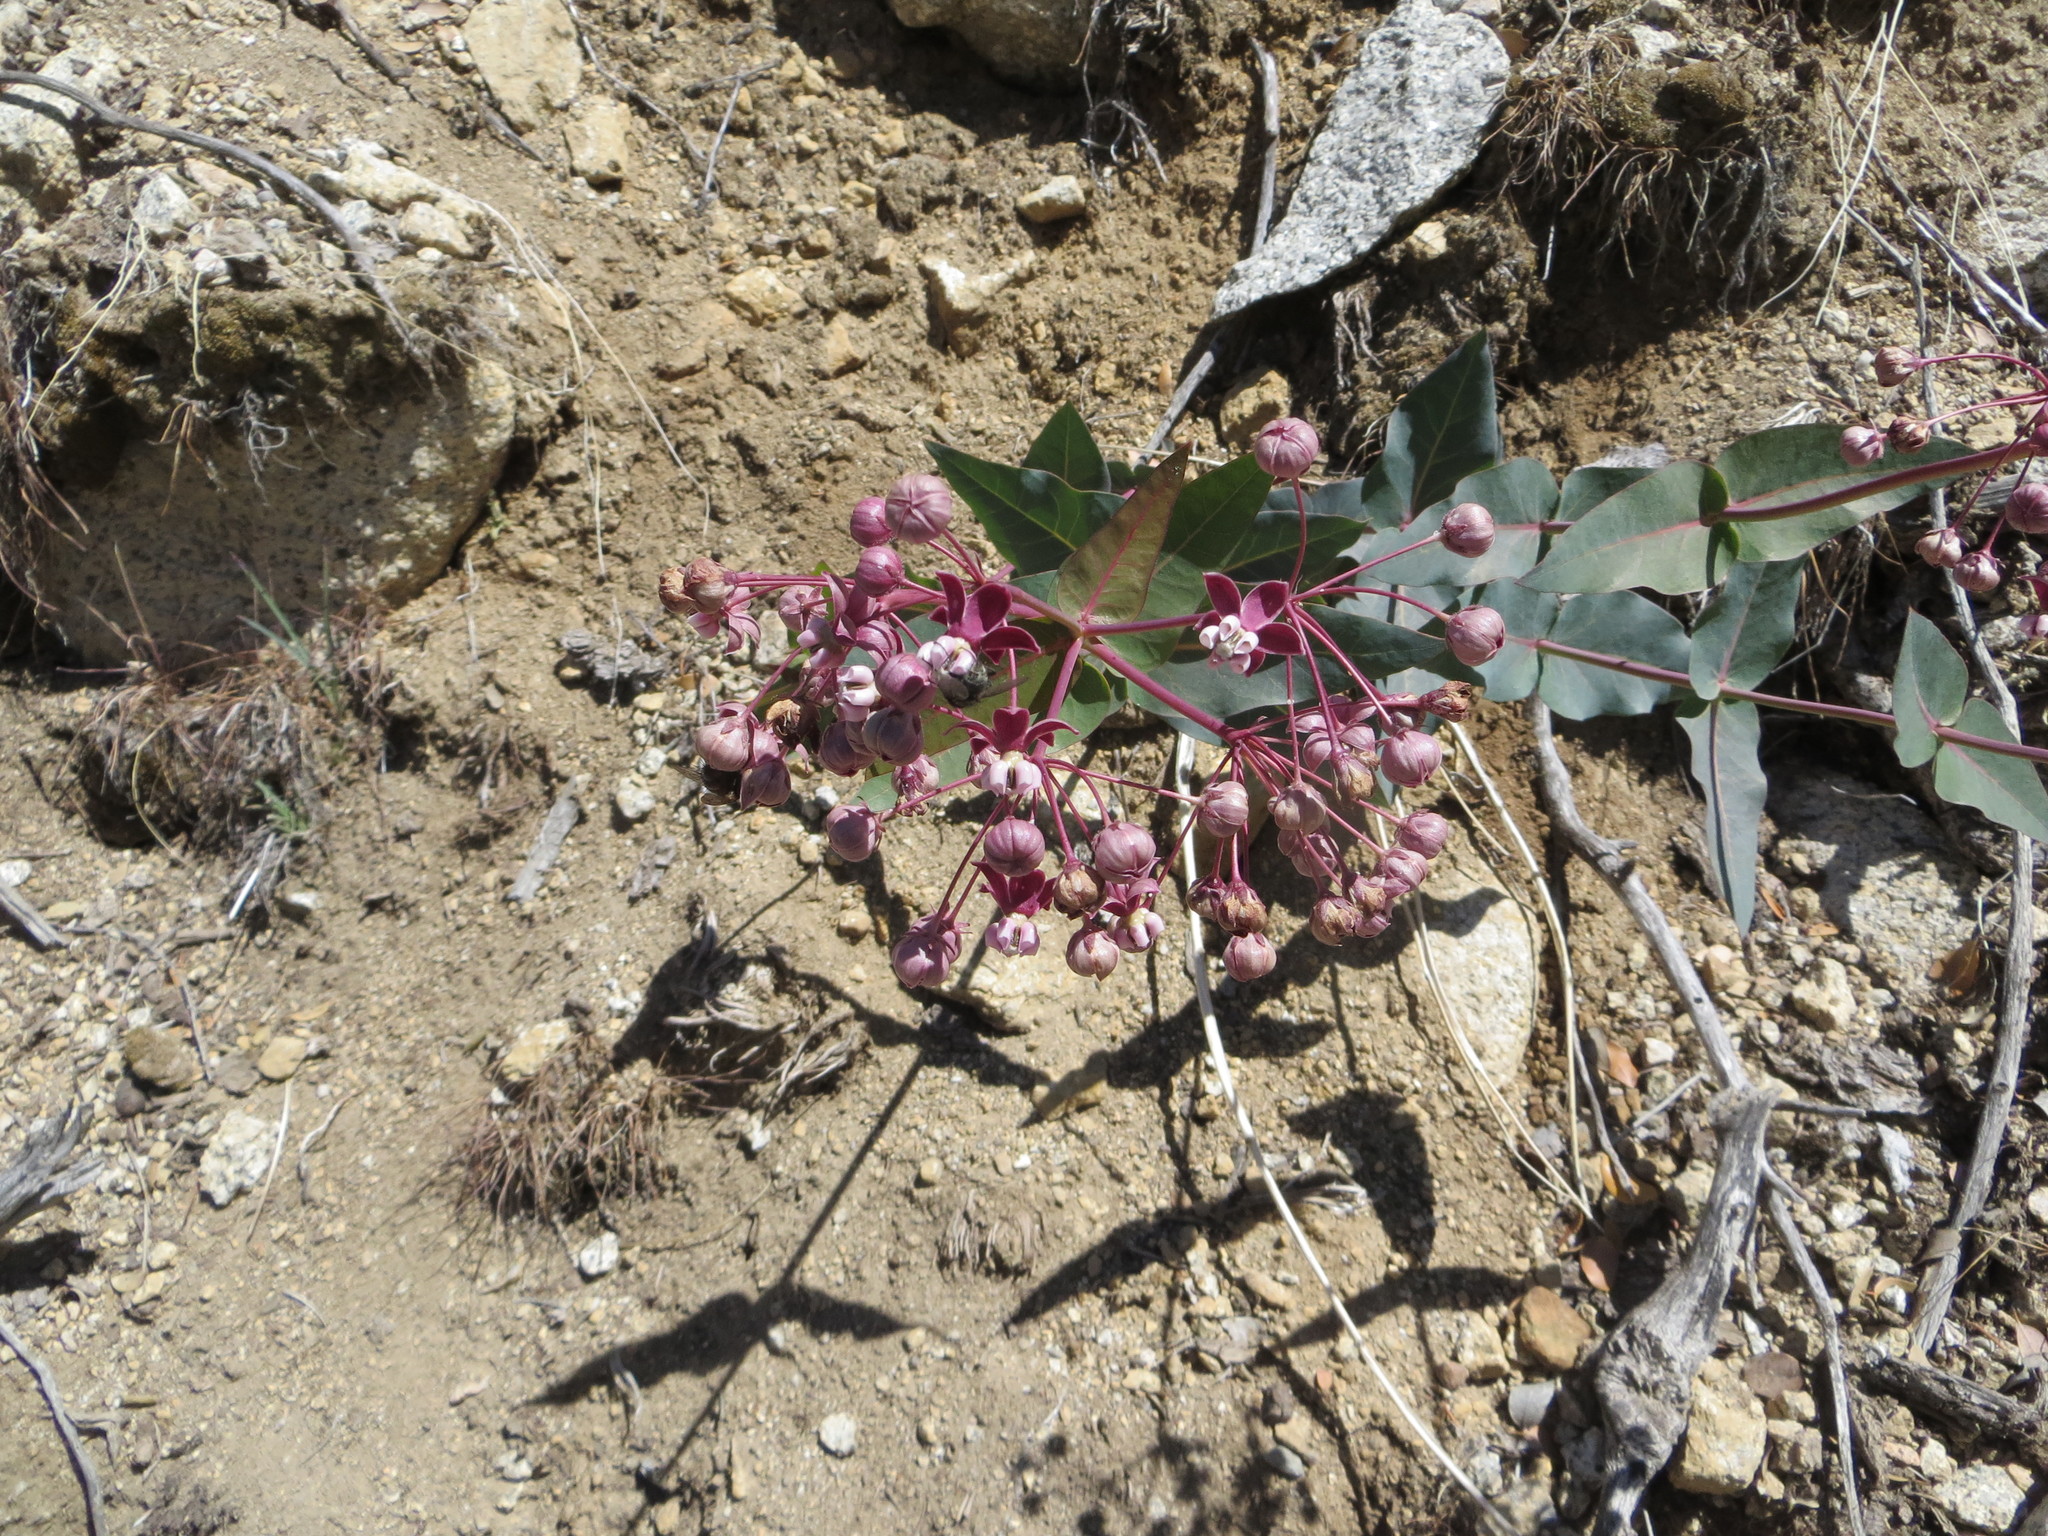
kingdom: Plantae
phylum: Tracheophyta
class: Magnoliopsida
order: Gentianales
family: Apocynaceae
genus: Asclepias
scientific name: Asclepias cordifolia
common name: Purple milkweed
